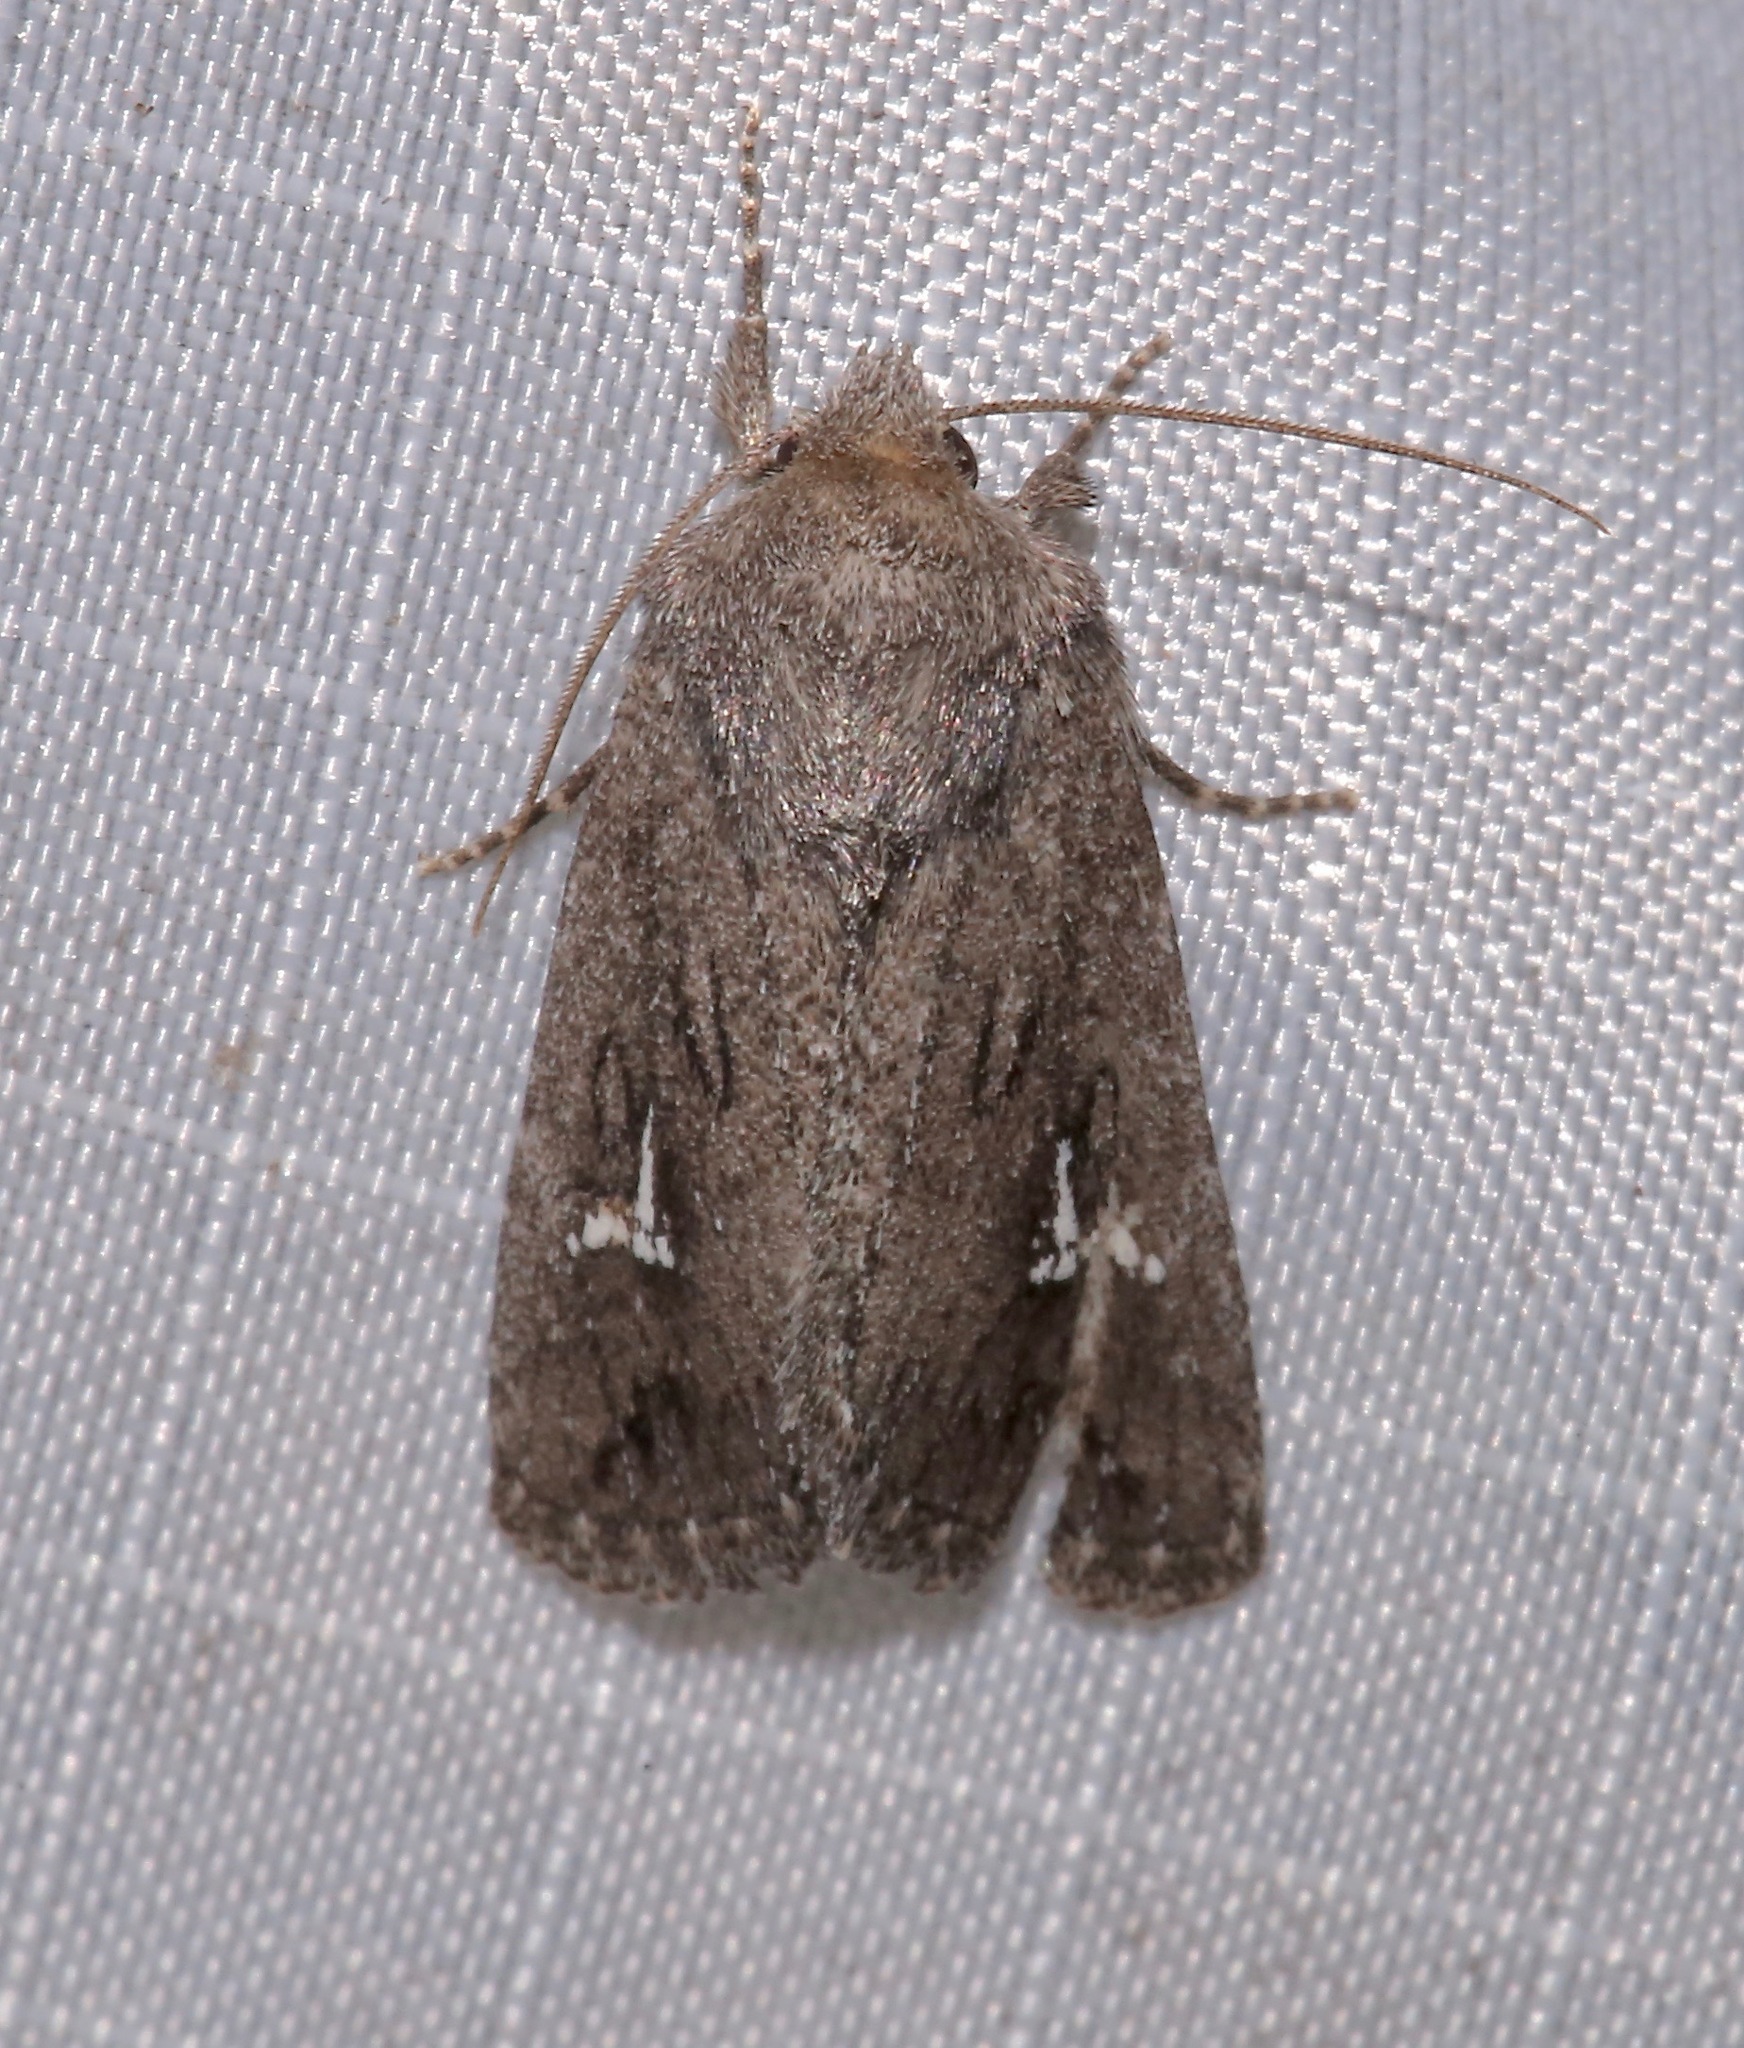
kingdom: Animalia
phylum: Arthropoda
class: Insecta
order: Lepidoptera
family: Noctuidae
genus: Tricholita
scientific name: Tricholita chipeta
